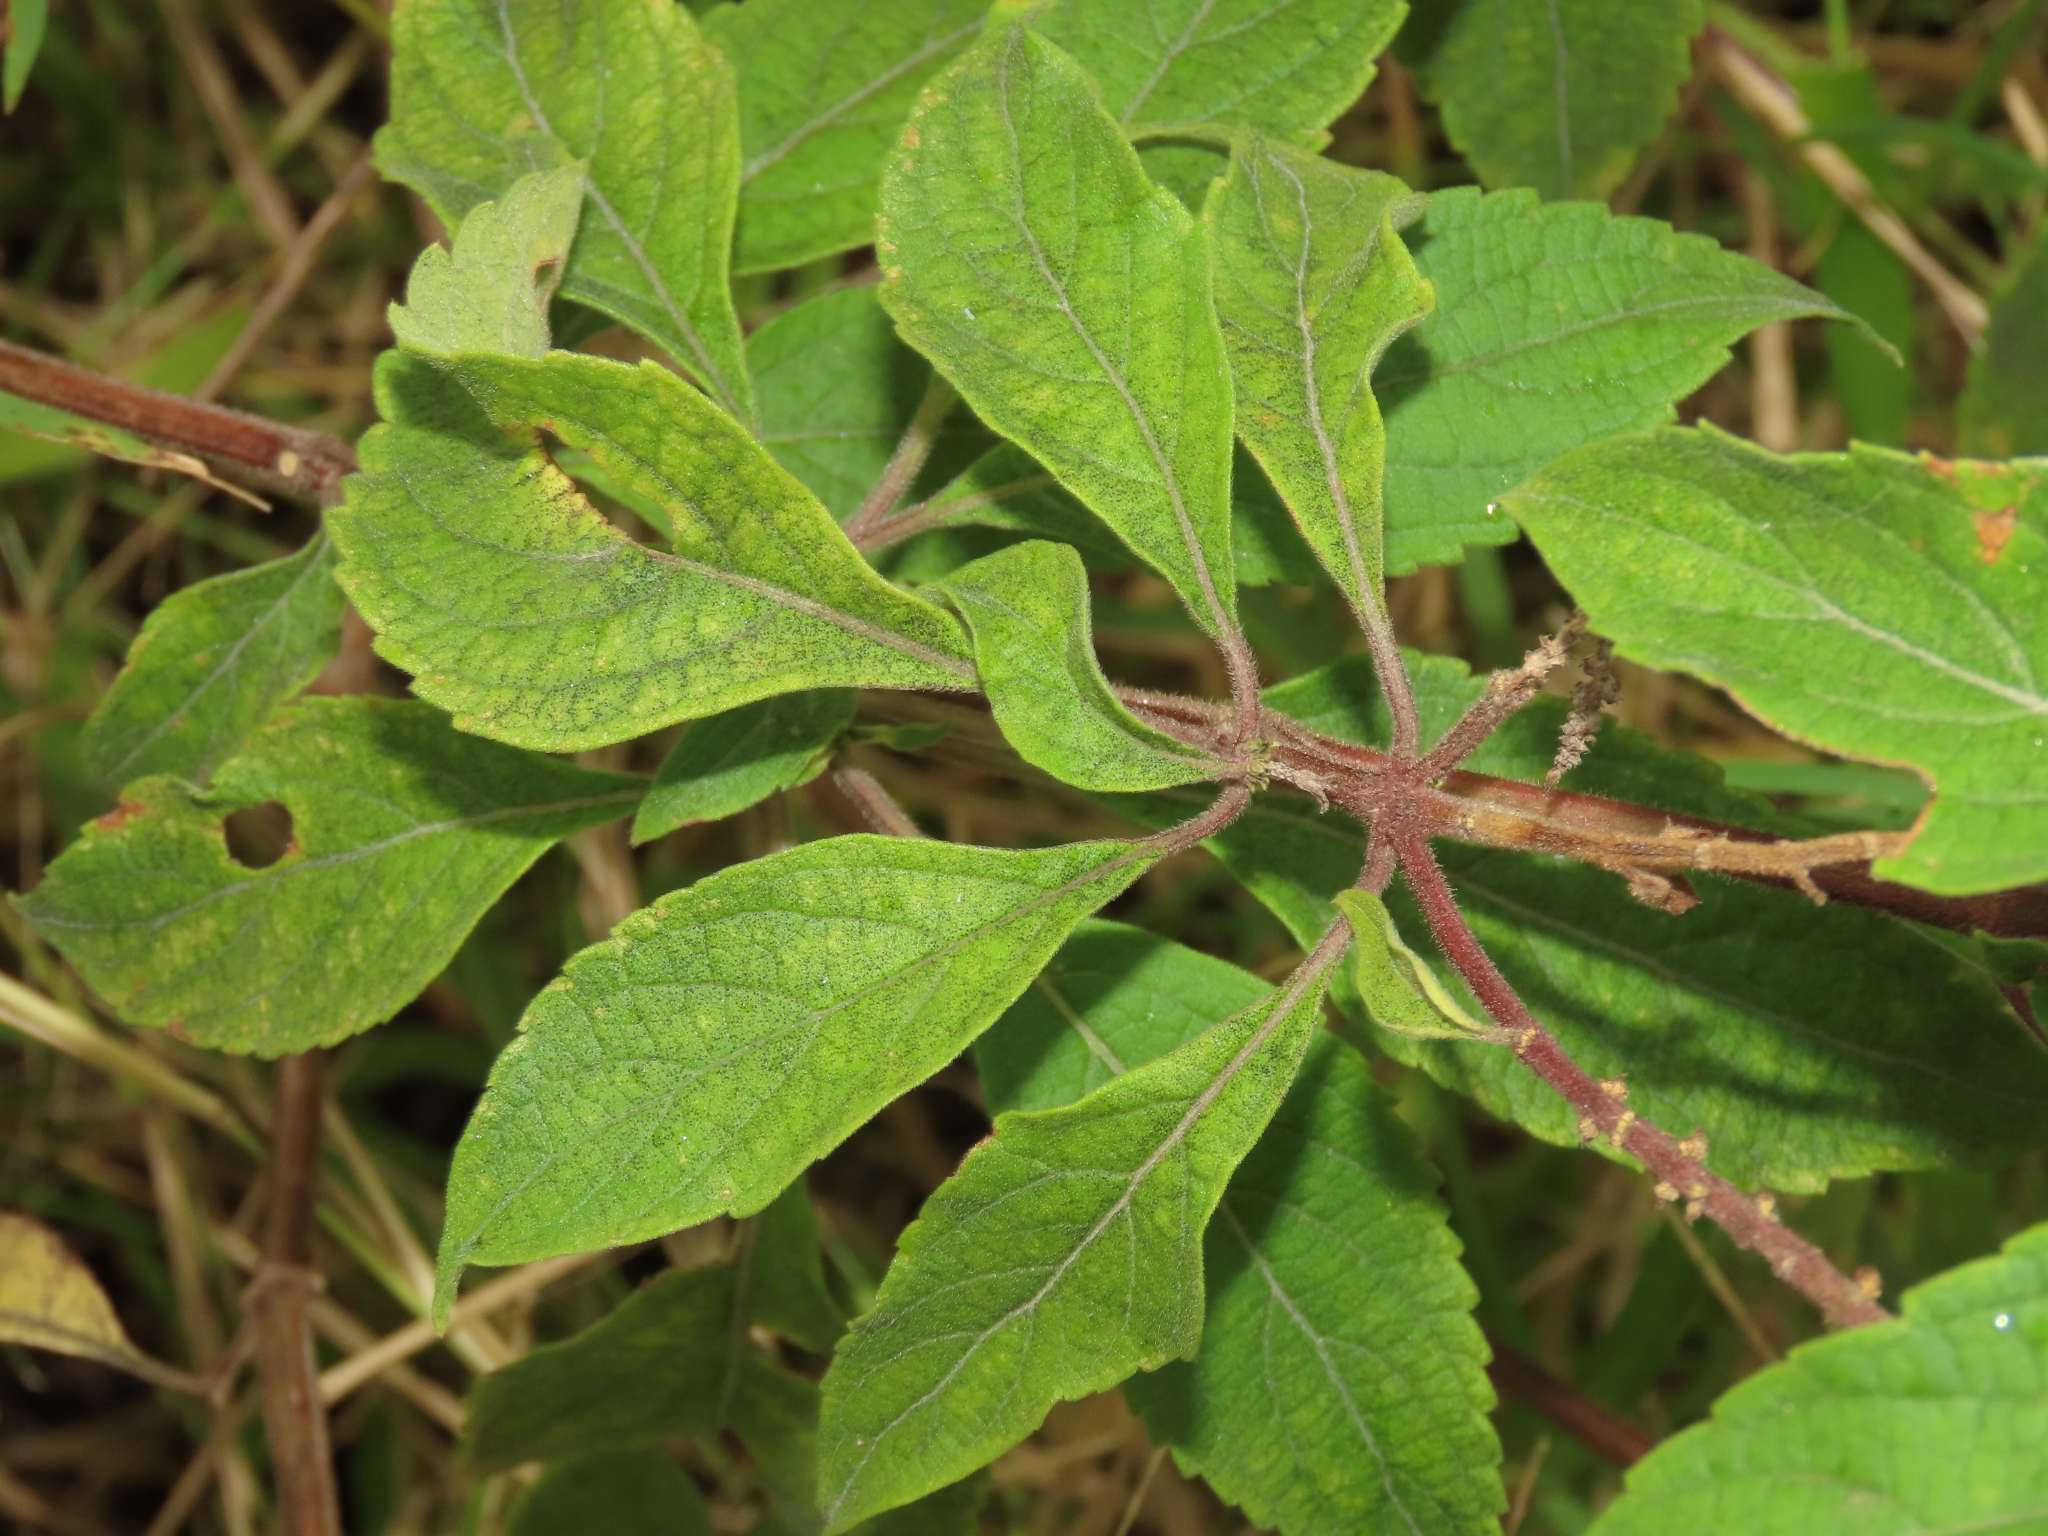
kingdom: Plantae
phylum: Tracheophyta
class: Magnoliopsida
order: Lamiales
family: Lamiaceae
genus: Ocimum
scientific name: Ocimum gratissimum
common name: African basil
